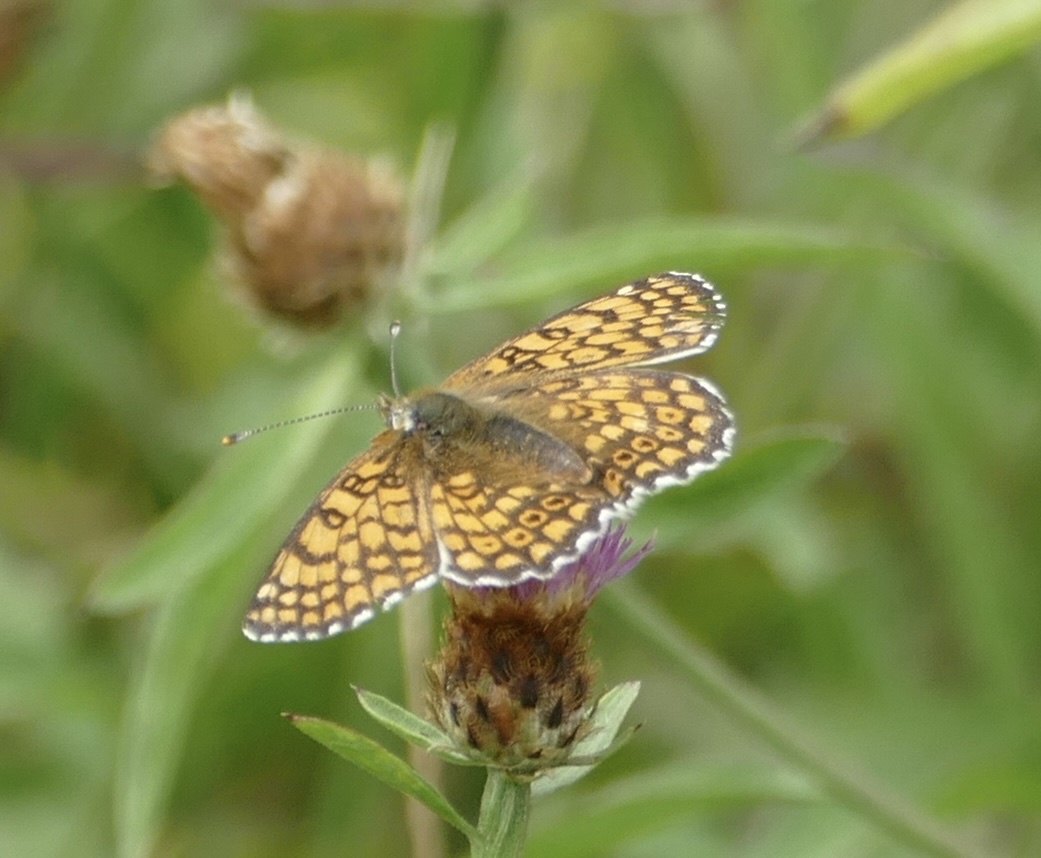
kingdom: Animalia
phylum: Arthropoda
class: Insecta
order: Lepidoptera
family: Nymphalidae
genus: Melitaea
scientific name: Melitaea cinxia
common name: Glanville fritillary
